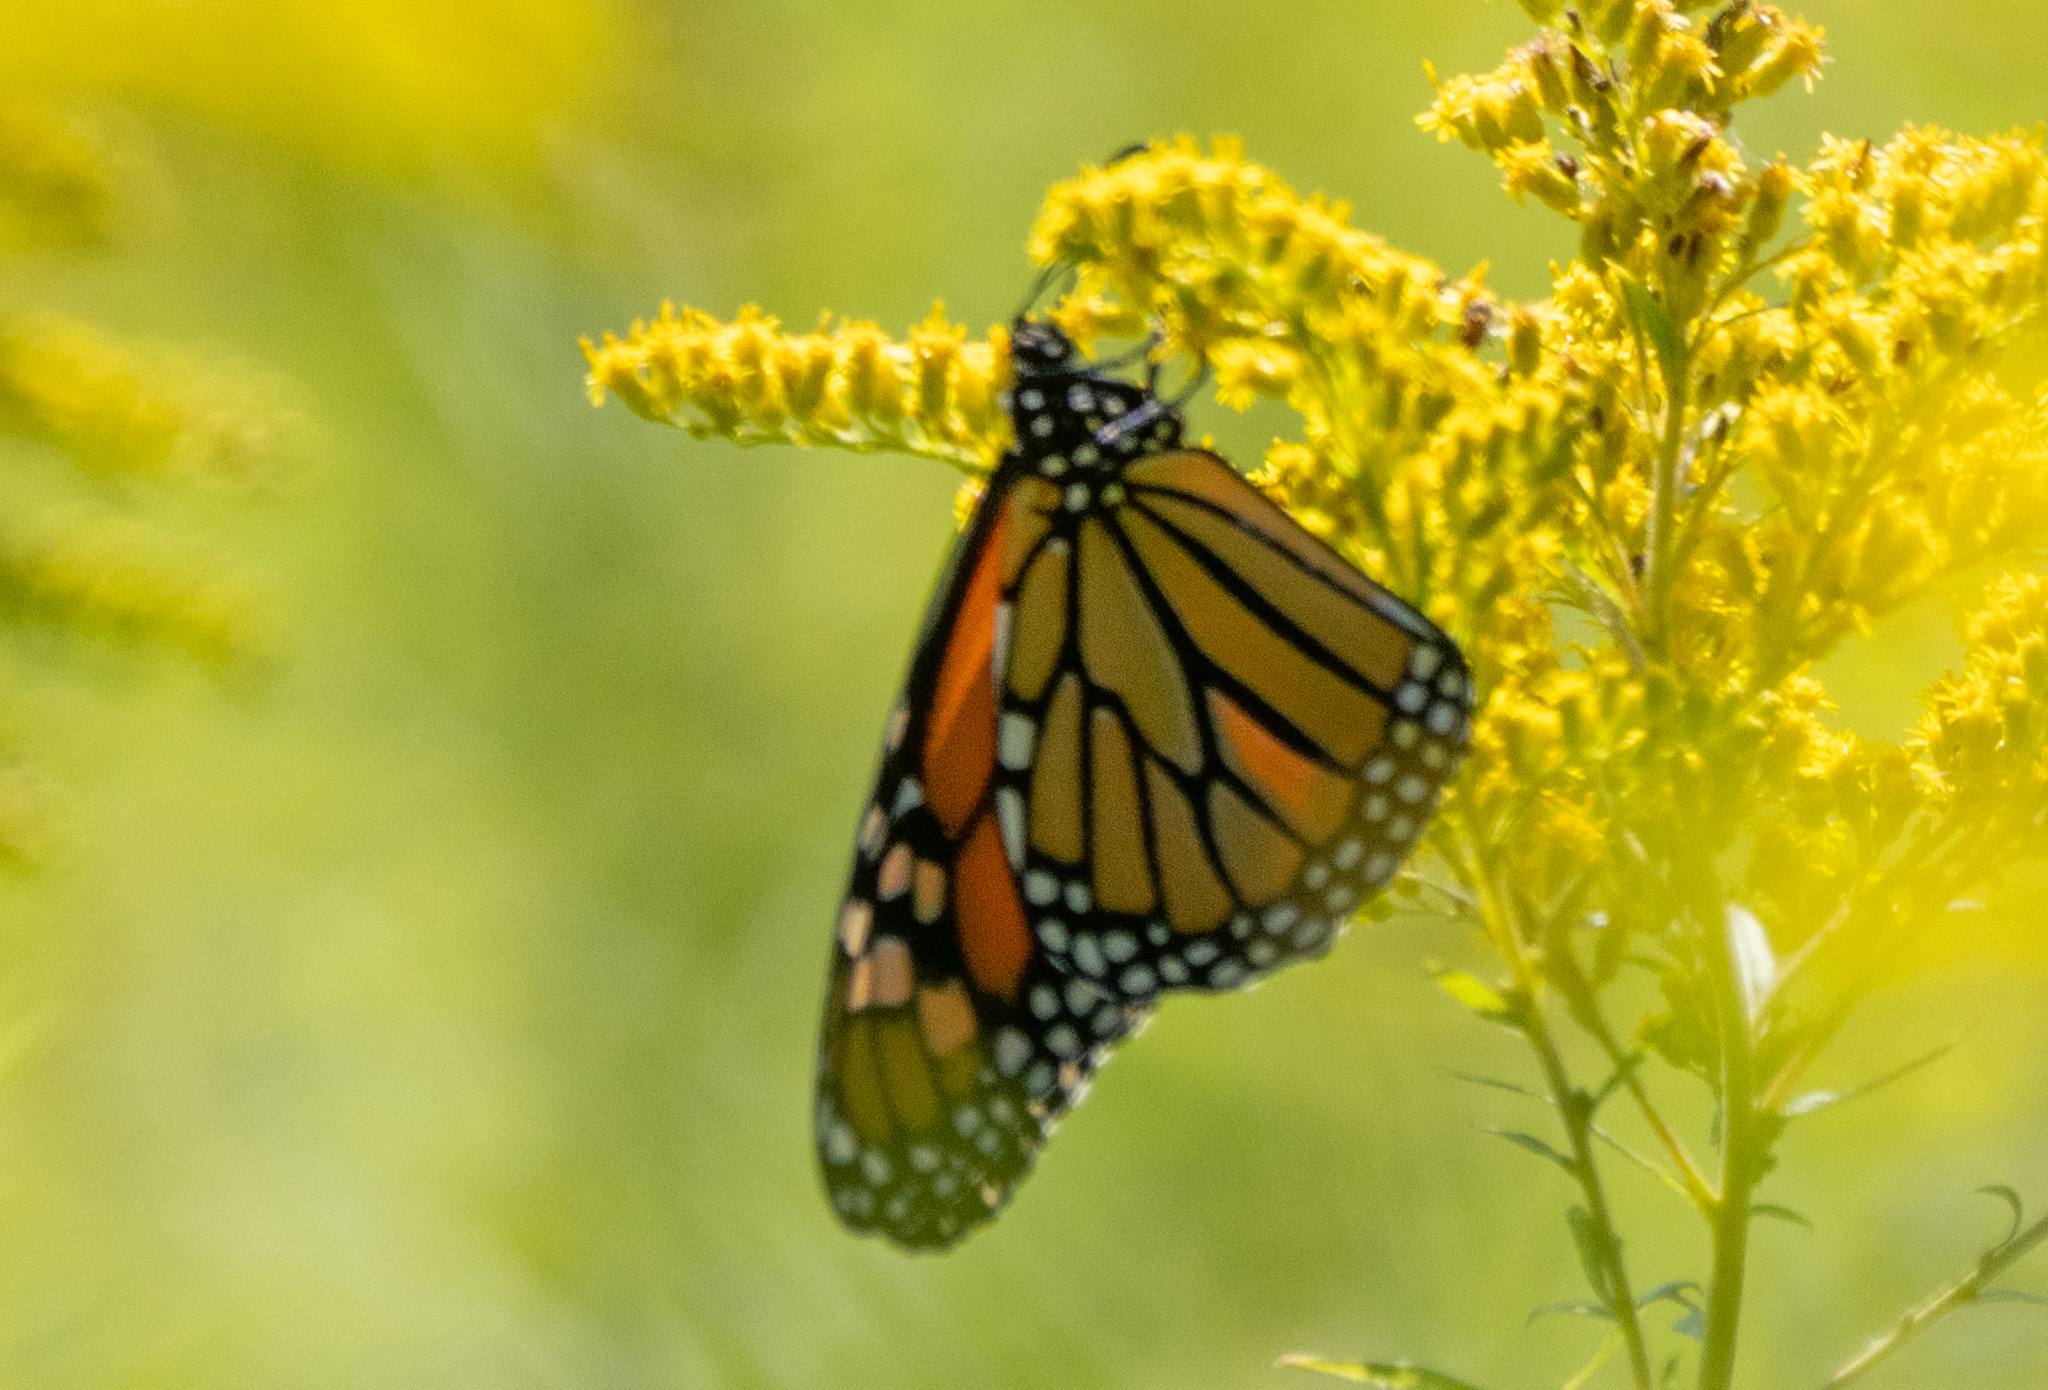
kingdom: Animalia
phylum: Arthropoda
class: Insecta
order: Lepidoptera
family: Nymphalidae
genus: Danaus
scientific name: Danaus plexippus
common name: Monarch
